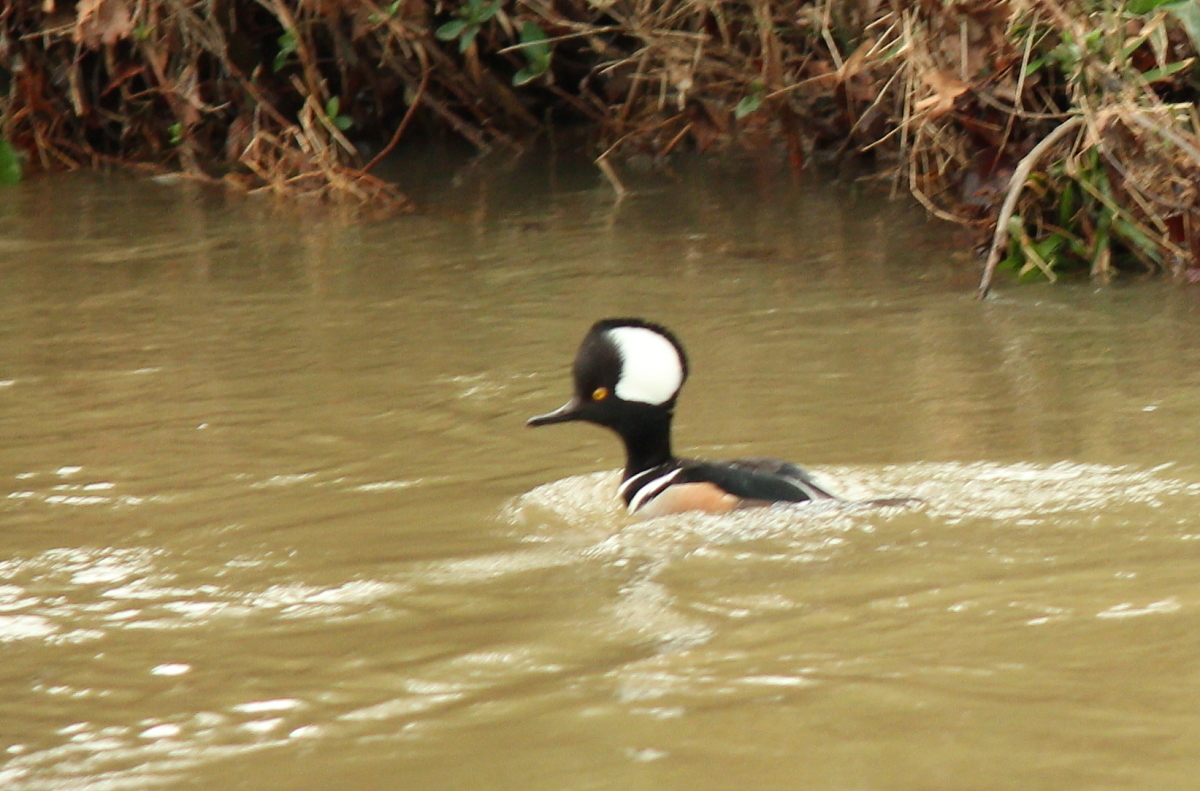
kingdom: Animalia
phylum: Chordata
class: Aves
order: Anseriformes
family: Anatidae
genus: Lophodytes
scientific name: Lophodytes cucullatus
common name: Hooded merganser
